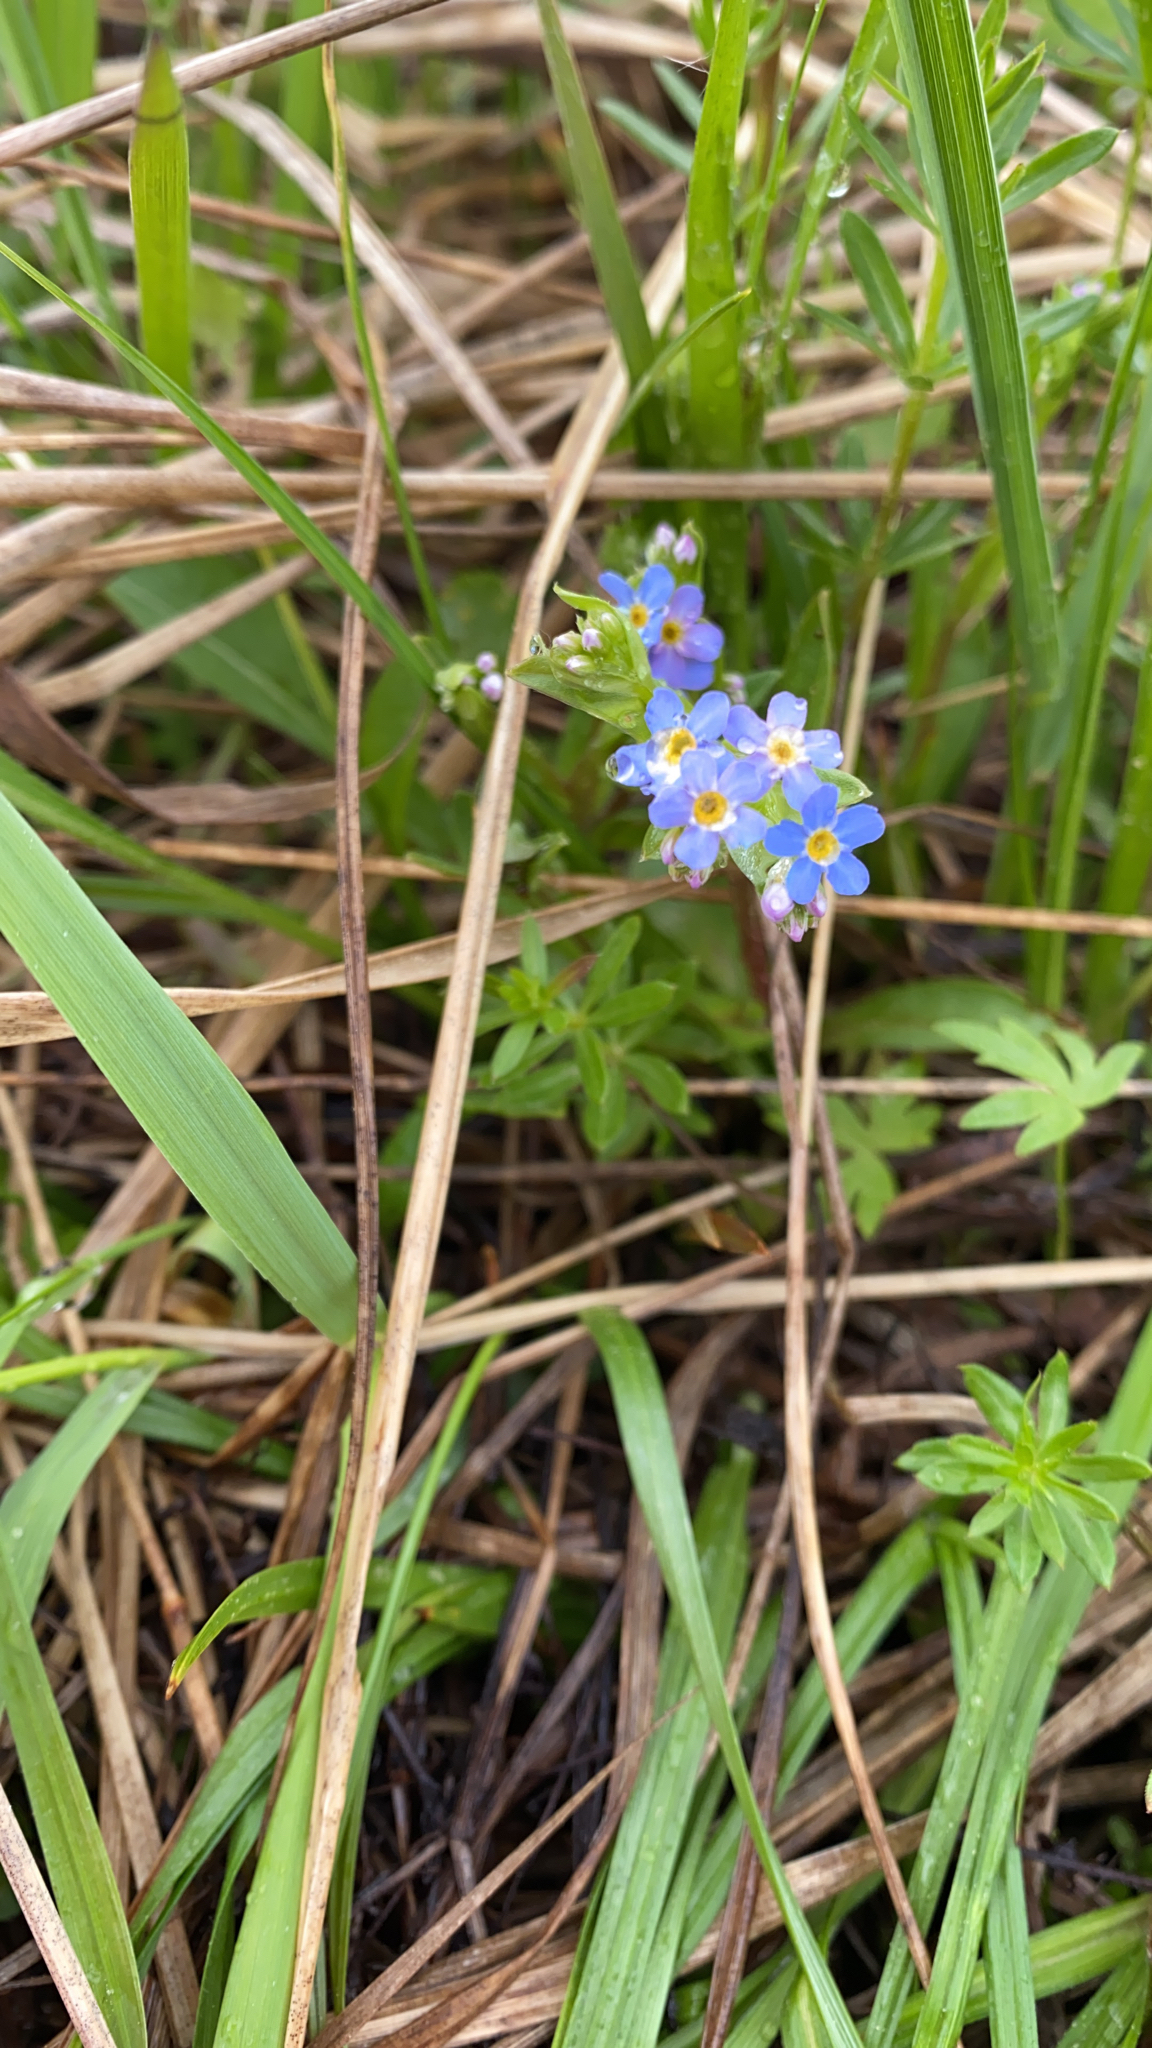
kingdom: Plantae
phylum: Tracheophyta
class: Magnoliopsida
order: Boraginales
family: Boraginaceae
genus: Myosotis
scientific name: Myosotis scorpioides
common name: Water forget-me-not
